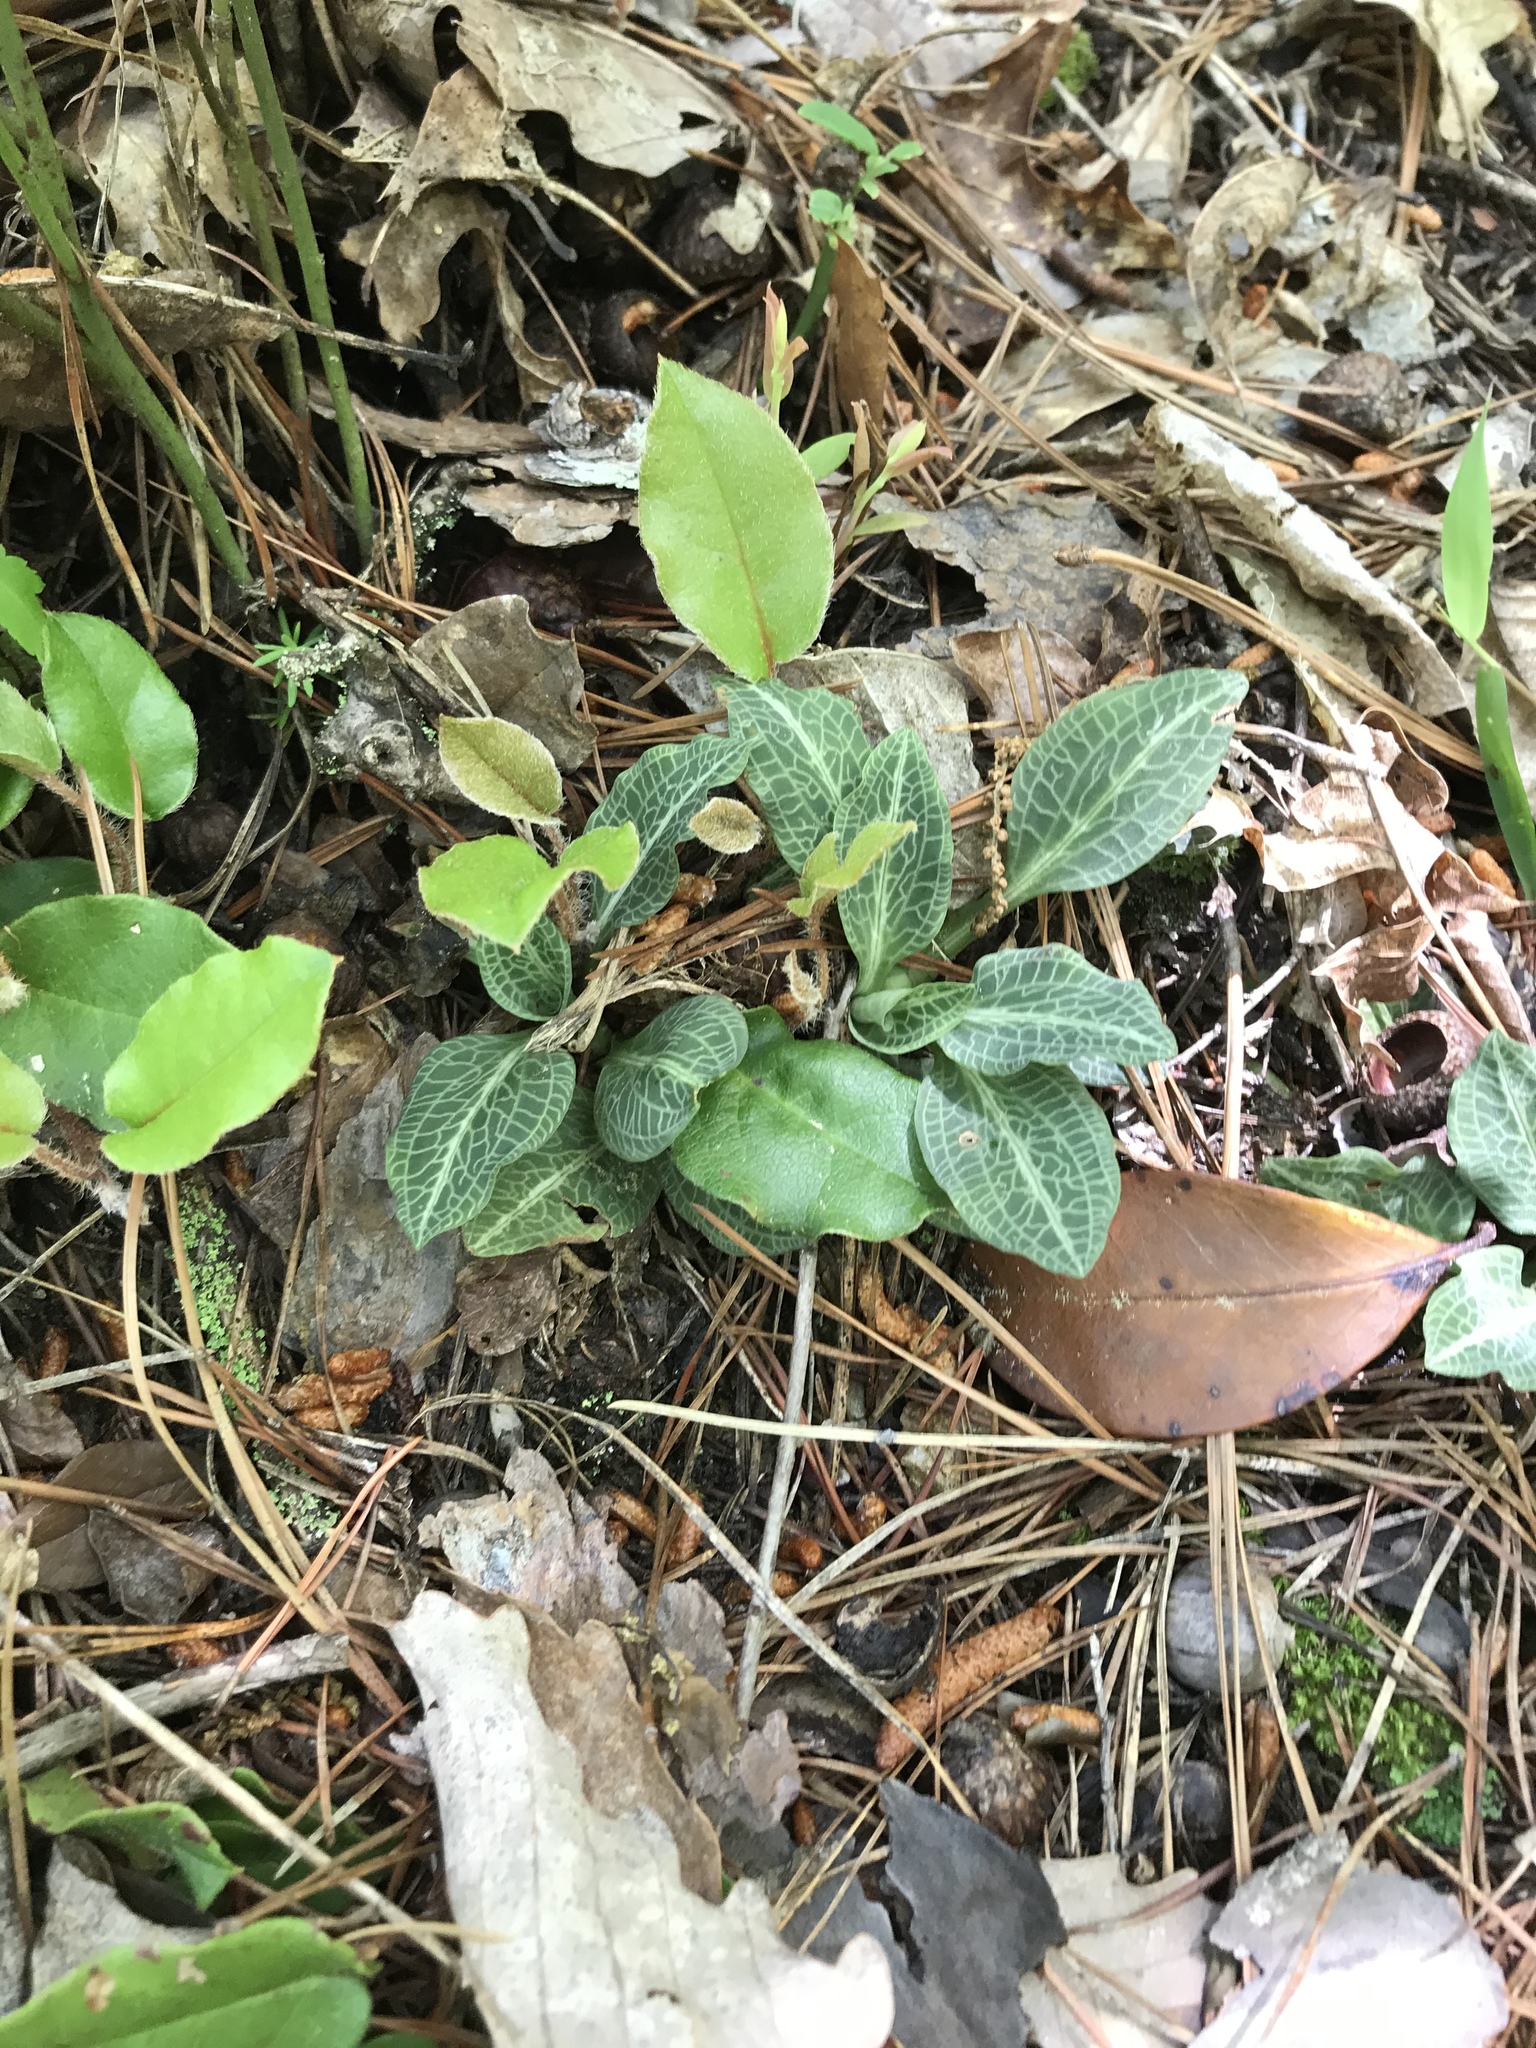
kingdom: Plantae
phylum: Tracheophyta
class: Liliopsida
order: Asparagales
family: Orchidaceae
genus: Goodyera
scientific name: Goodyera pubescens
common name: Downy rattlesnake-plantain
